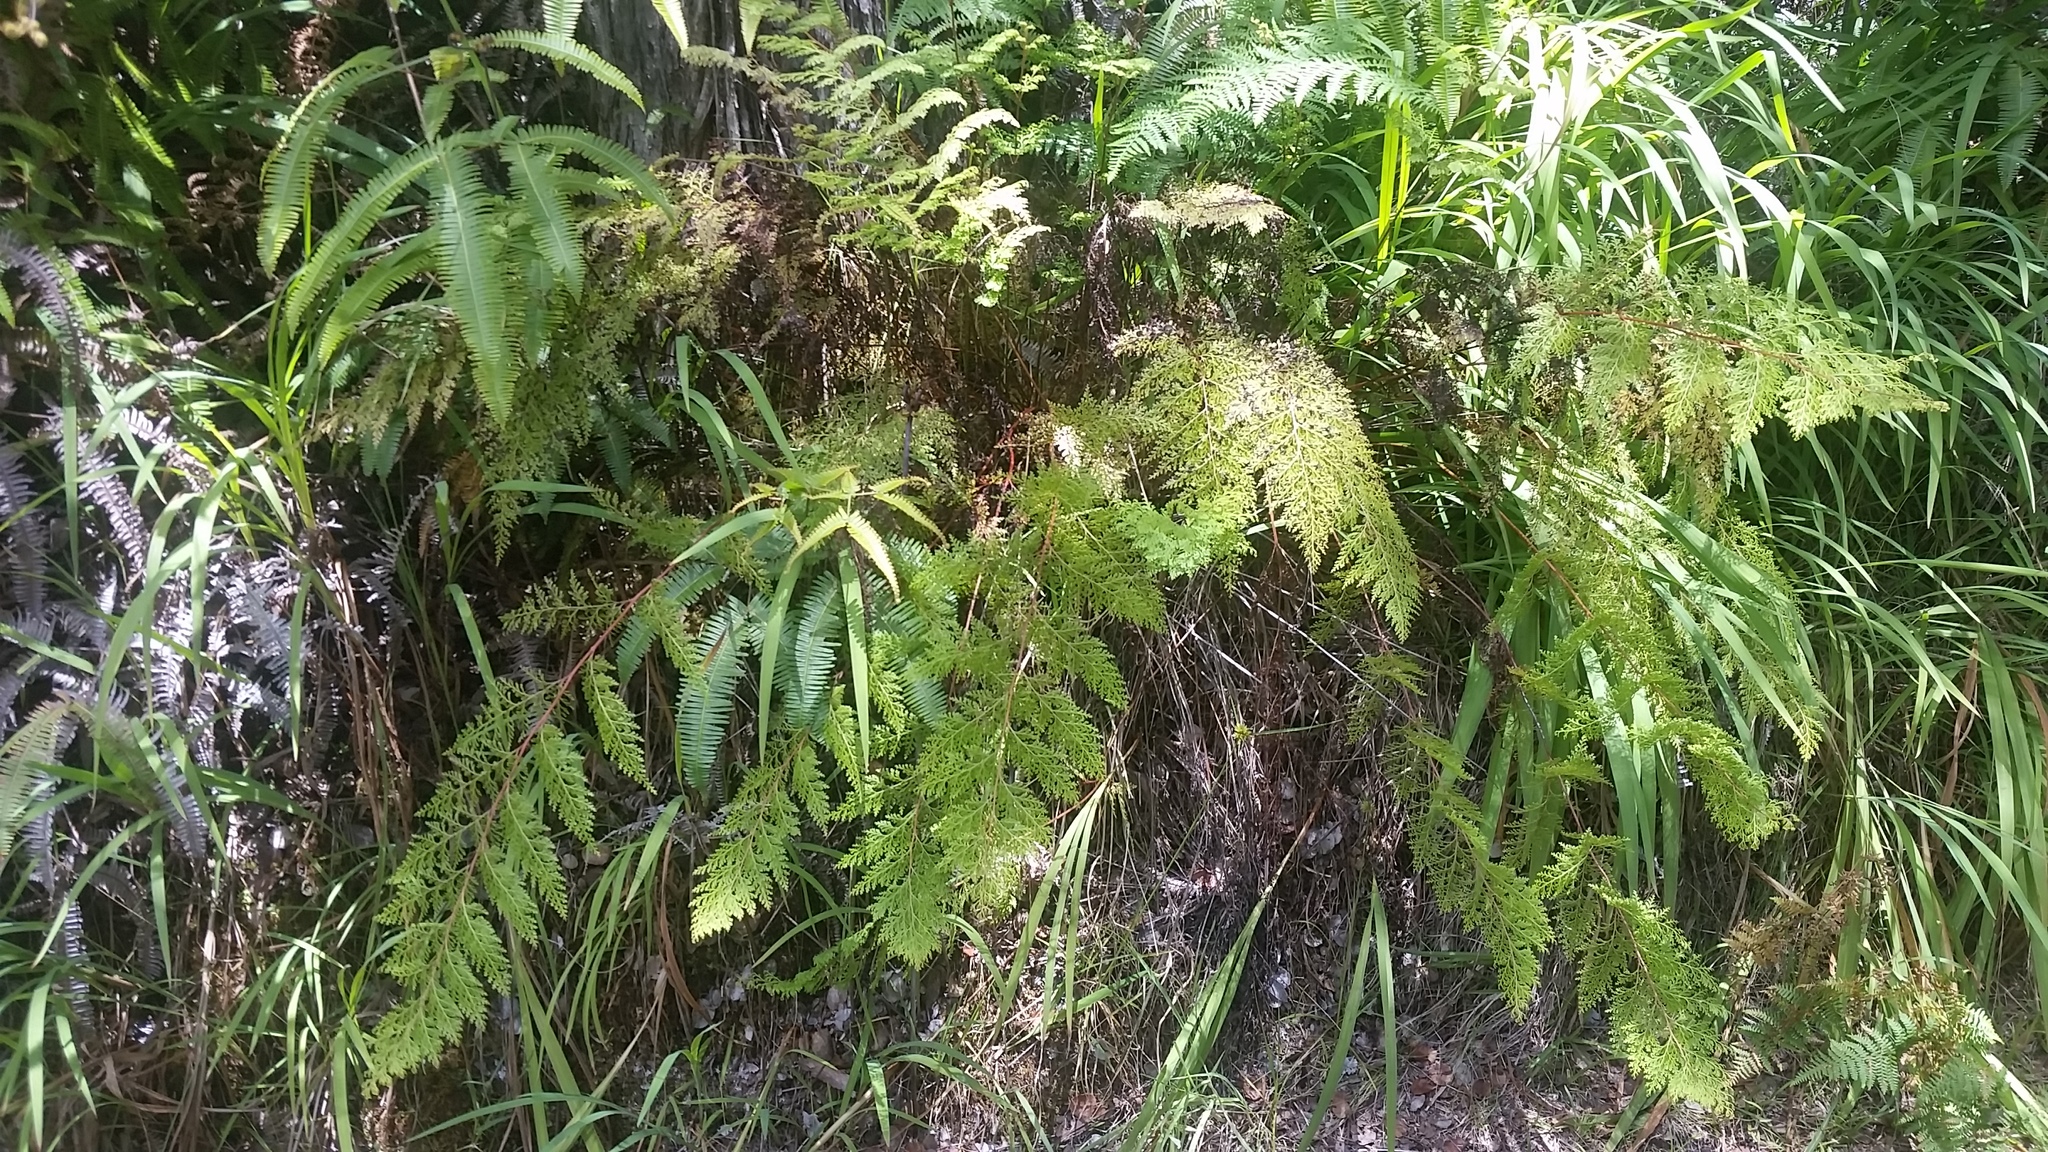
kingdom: Plantae
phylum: Tracheophyta
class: Polypodiopsida
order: Polypodiales
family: Lindsaeaceae
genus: Odontosoria
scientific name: Odontosoria chinensis
